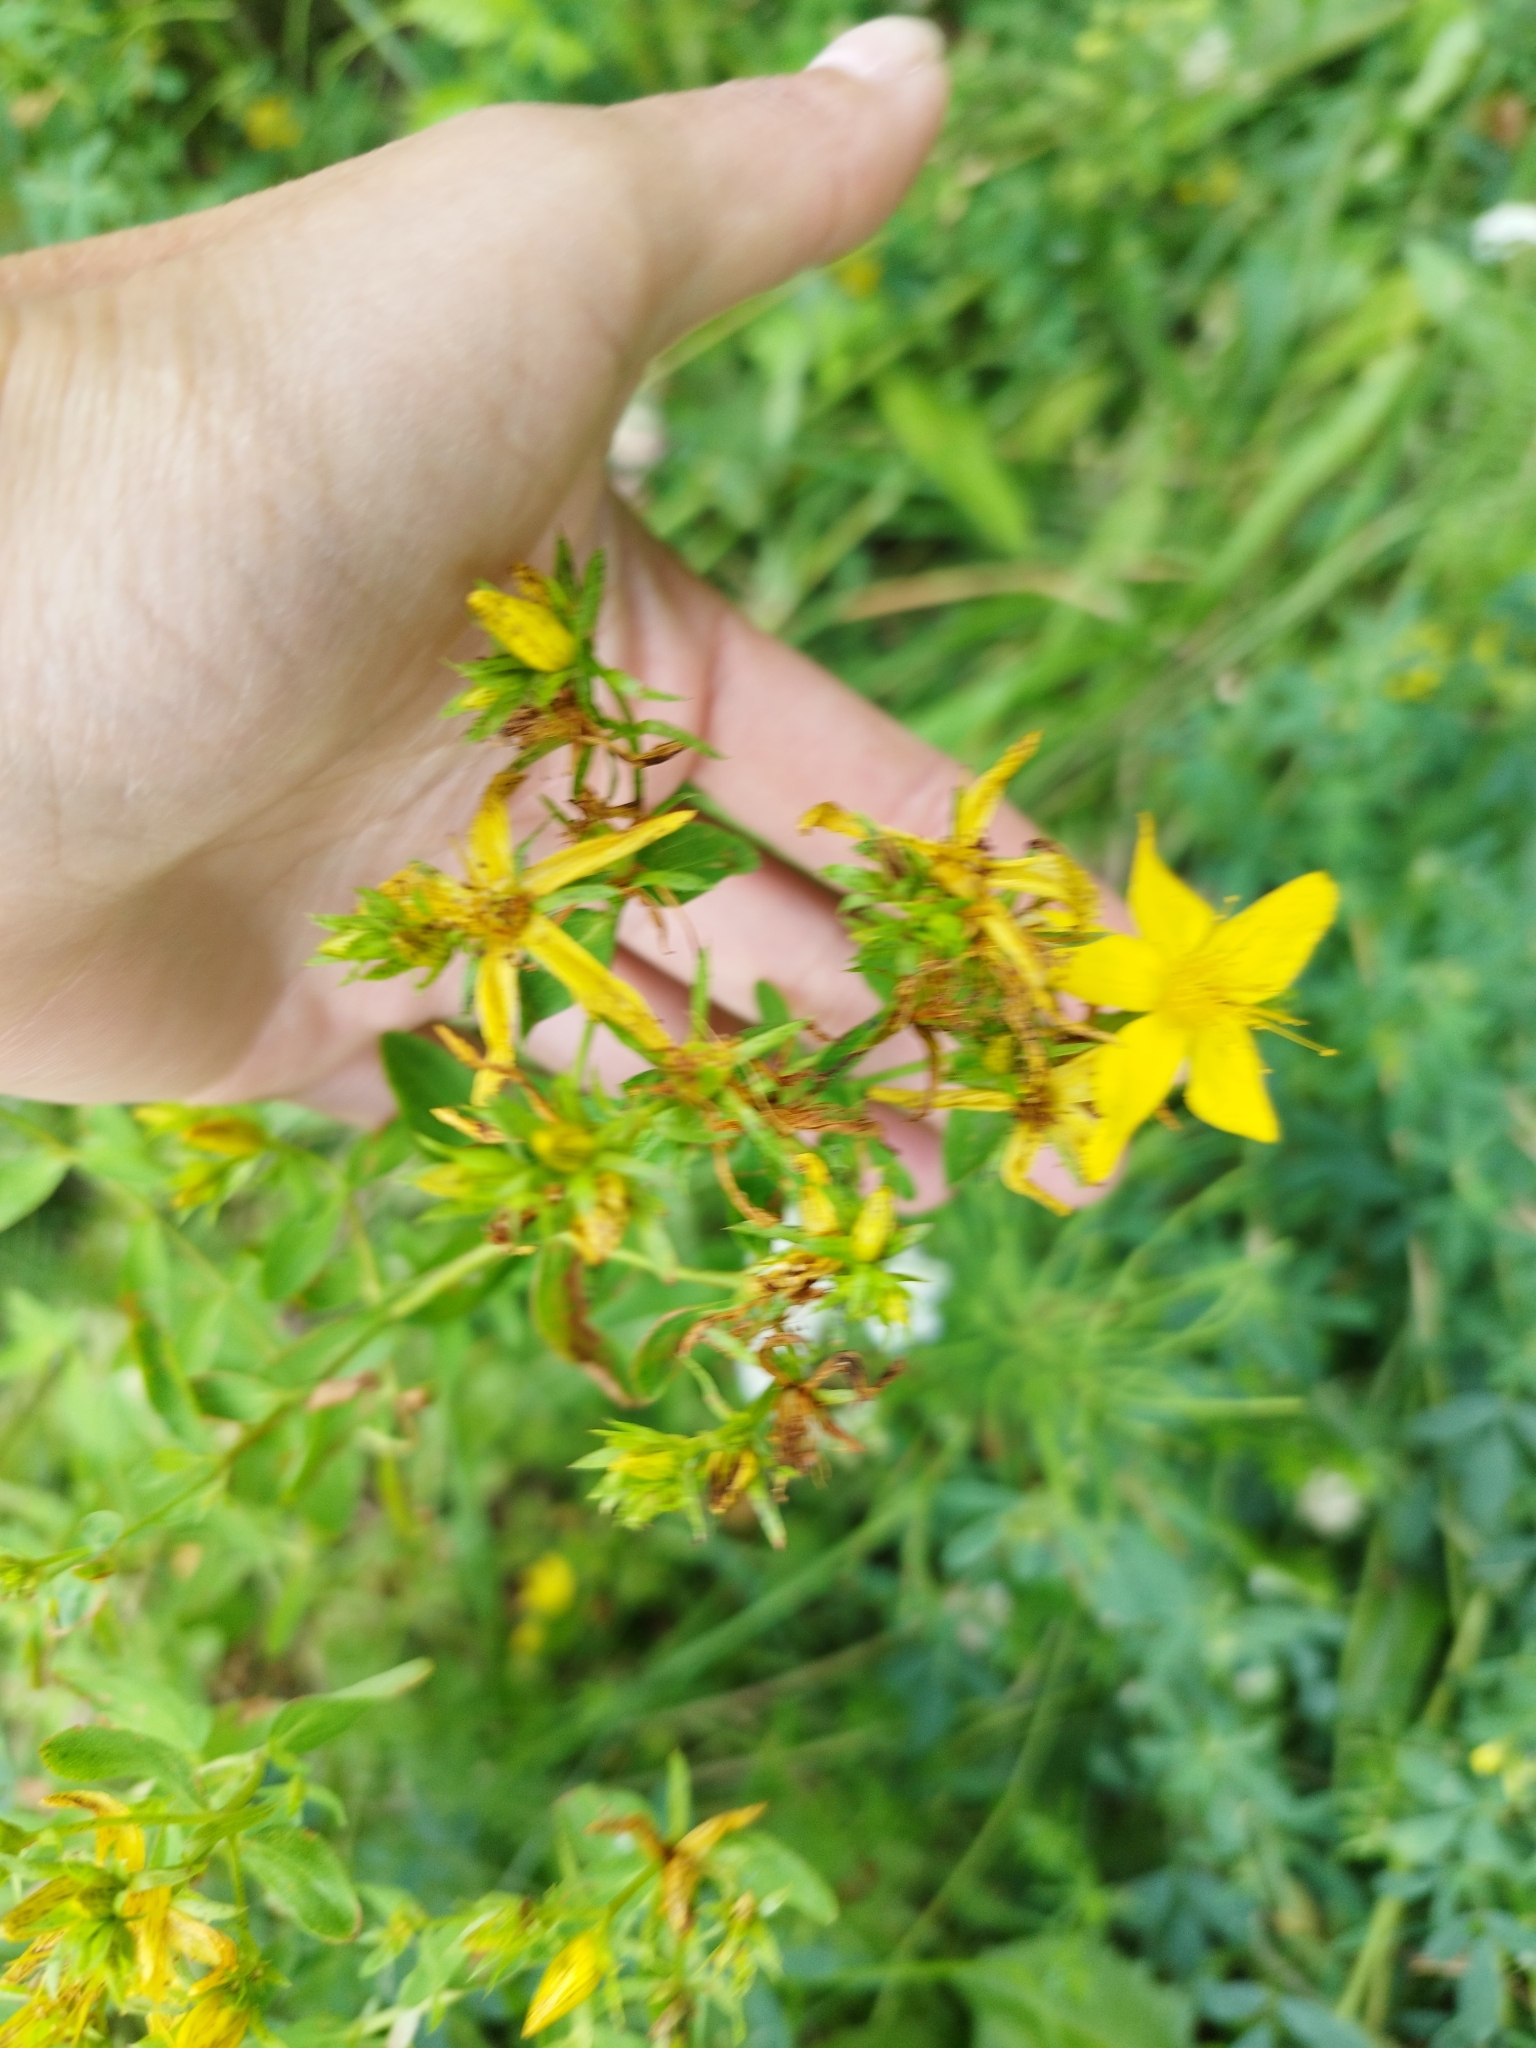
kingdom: Plantae
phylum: Tracheophyta
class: Magnoliopsida
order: Malpighiales
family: Hypericaceae
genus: Hypericum
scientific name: Hypericum perforatum
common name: Common st. johnswort
